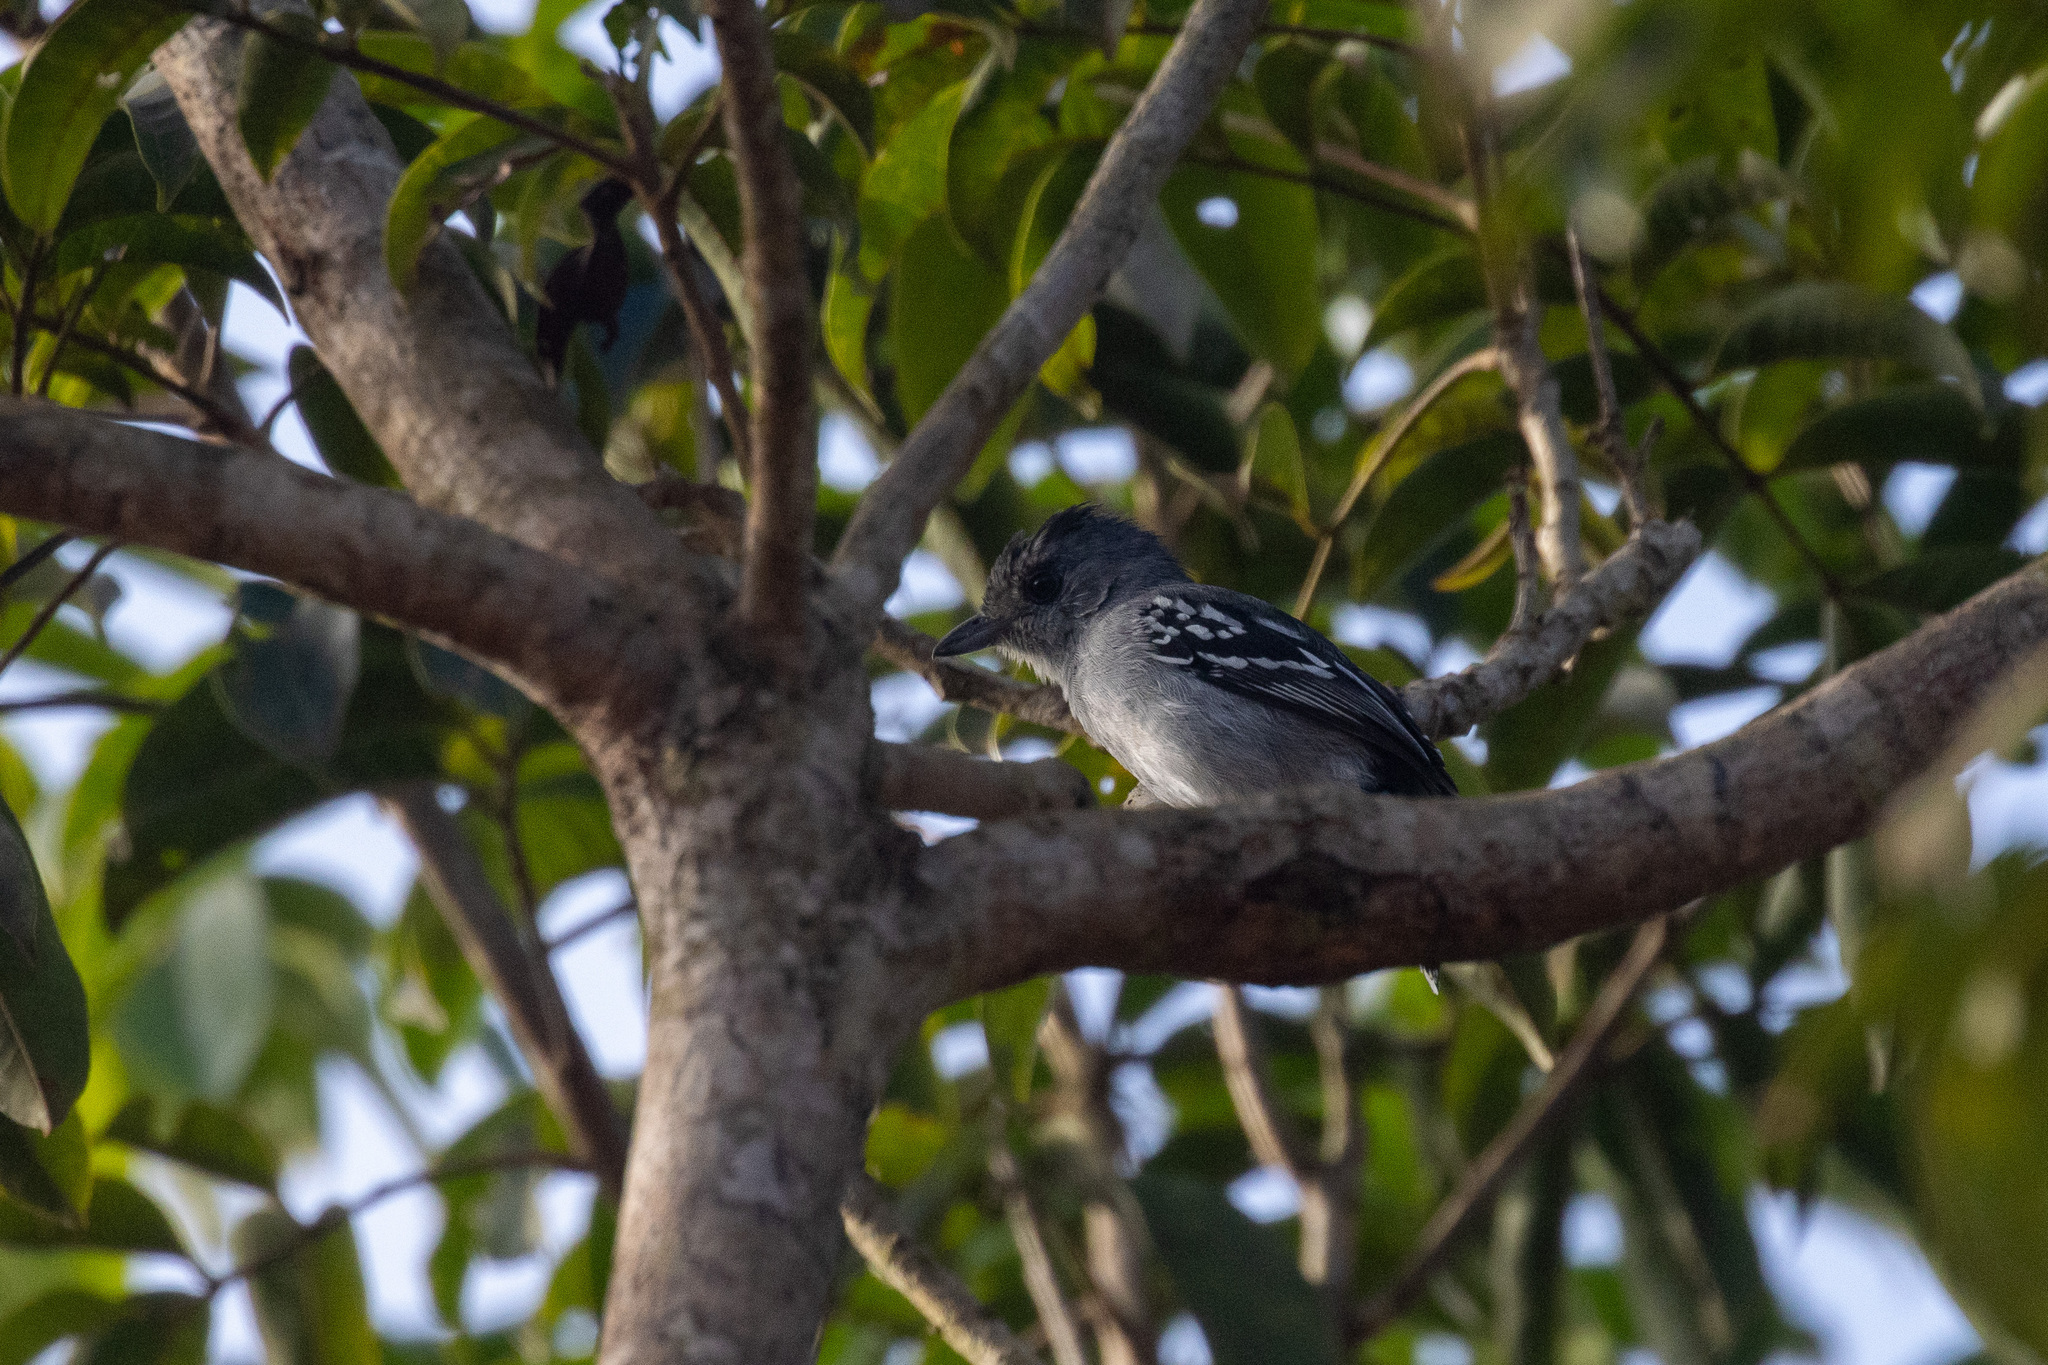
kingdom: Animalia
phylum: Chordata
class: Aves
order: Passeriformes
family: Thamnophilidae
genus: Thamnophilus
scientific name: Thamnophilus pelzelni
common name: Planalto slaty-antshrike
